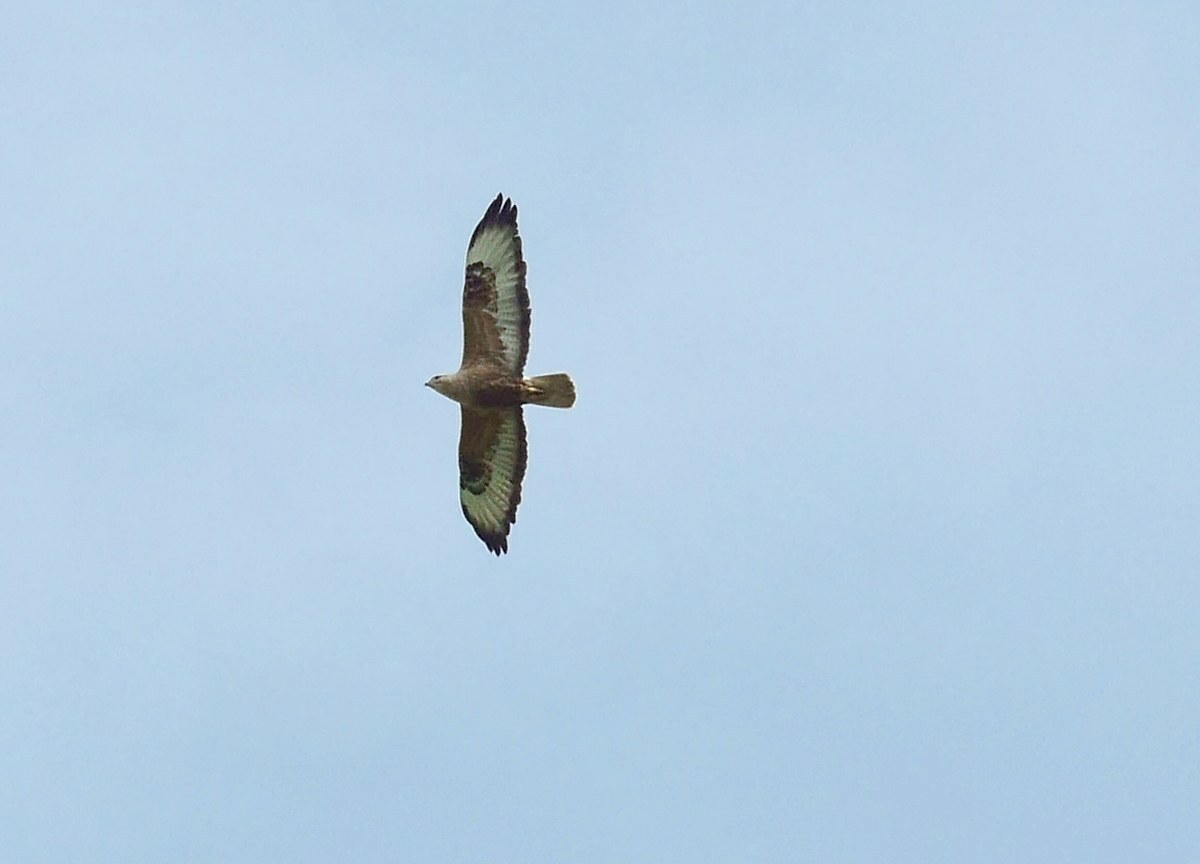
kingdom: Animalia
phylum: Chordata
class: Aves
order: Accipitriformes
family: Accipitridae
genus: Buteo
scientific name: Buteo rufinus
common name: Long-legged buzzard
